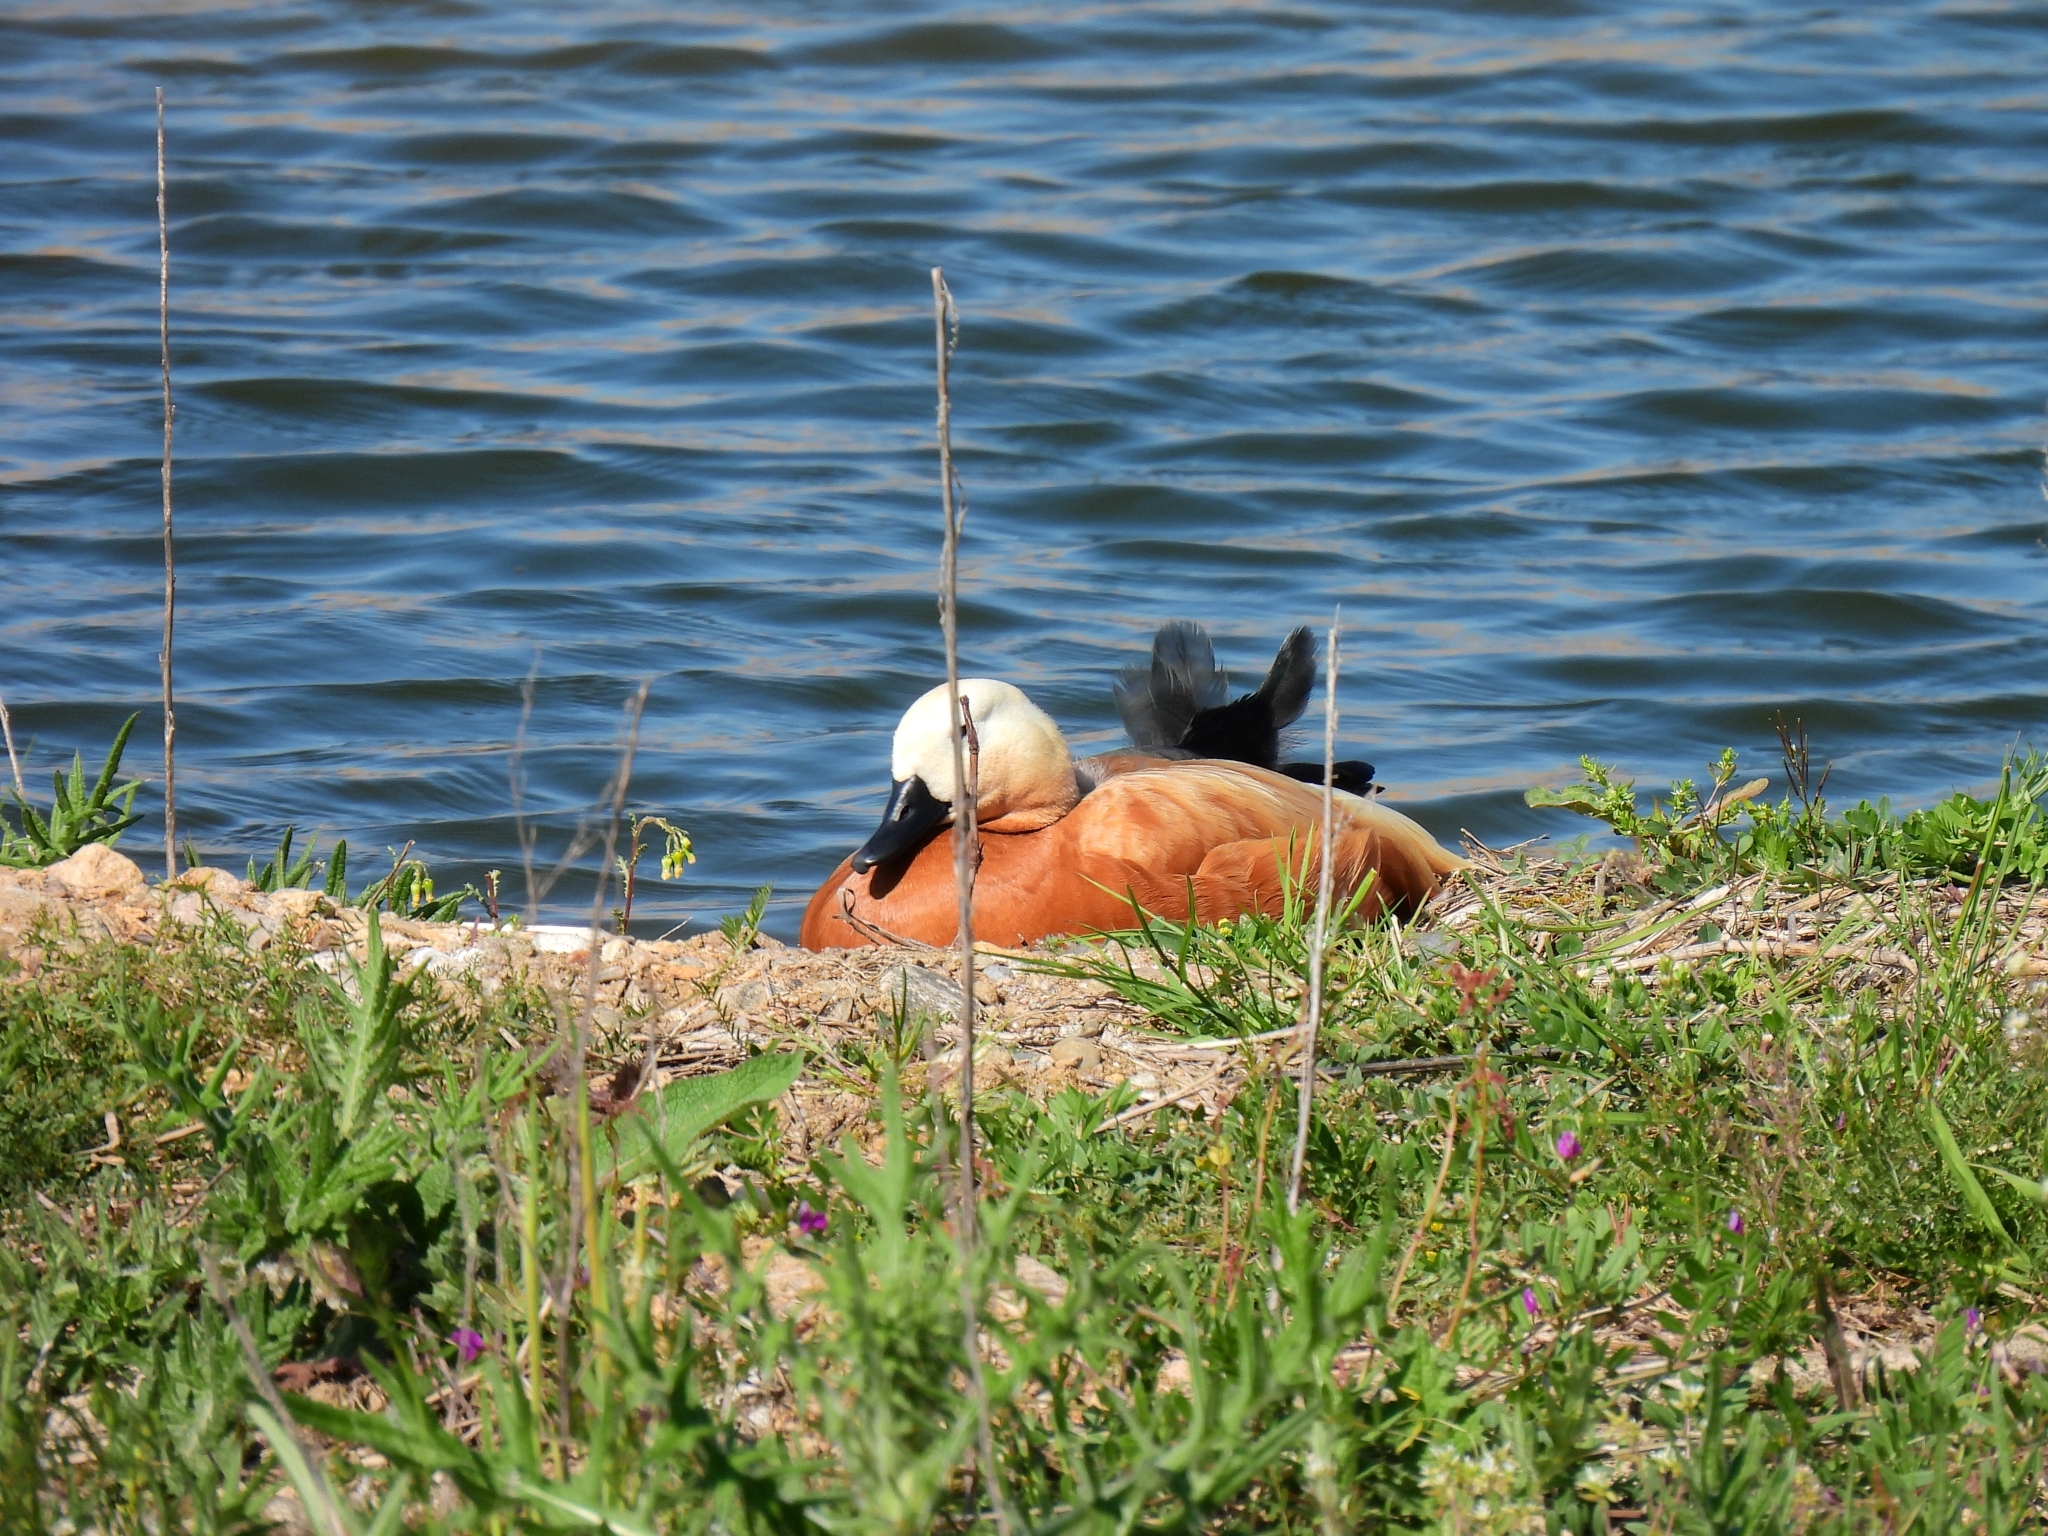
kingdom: Animalia
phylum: Chordata
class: Aves
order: Anseriformes
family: Anatidae
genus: Tadorna
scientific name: Tadorna ferruginea
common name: Ruddy shelduck
